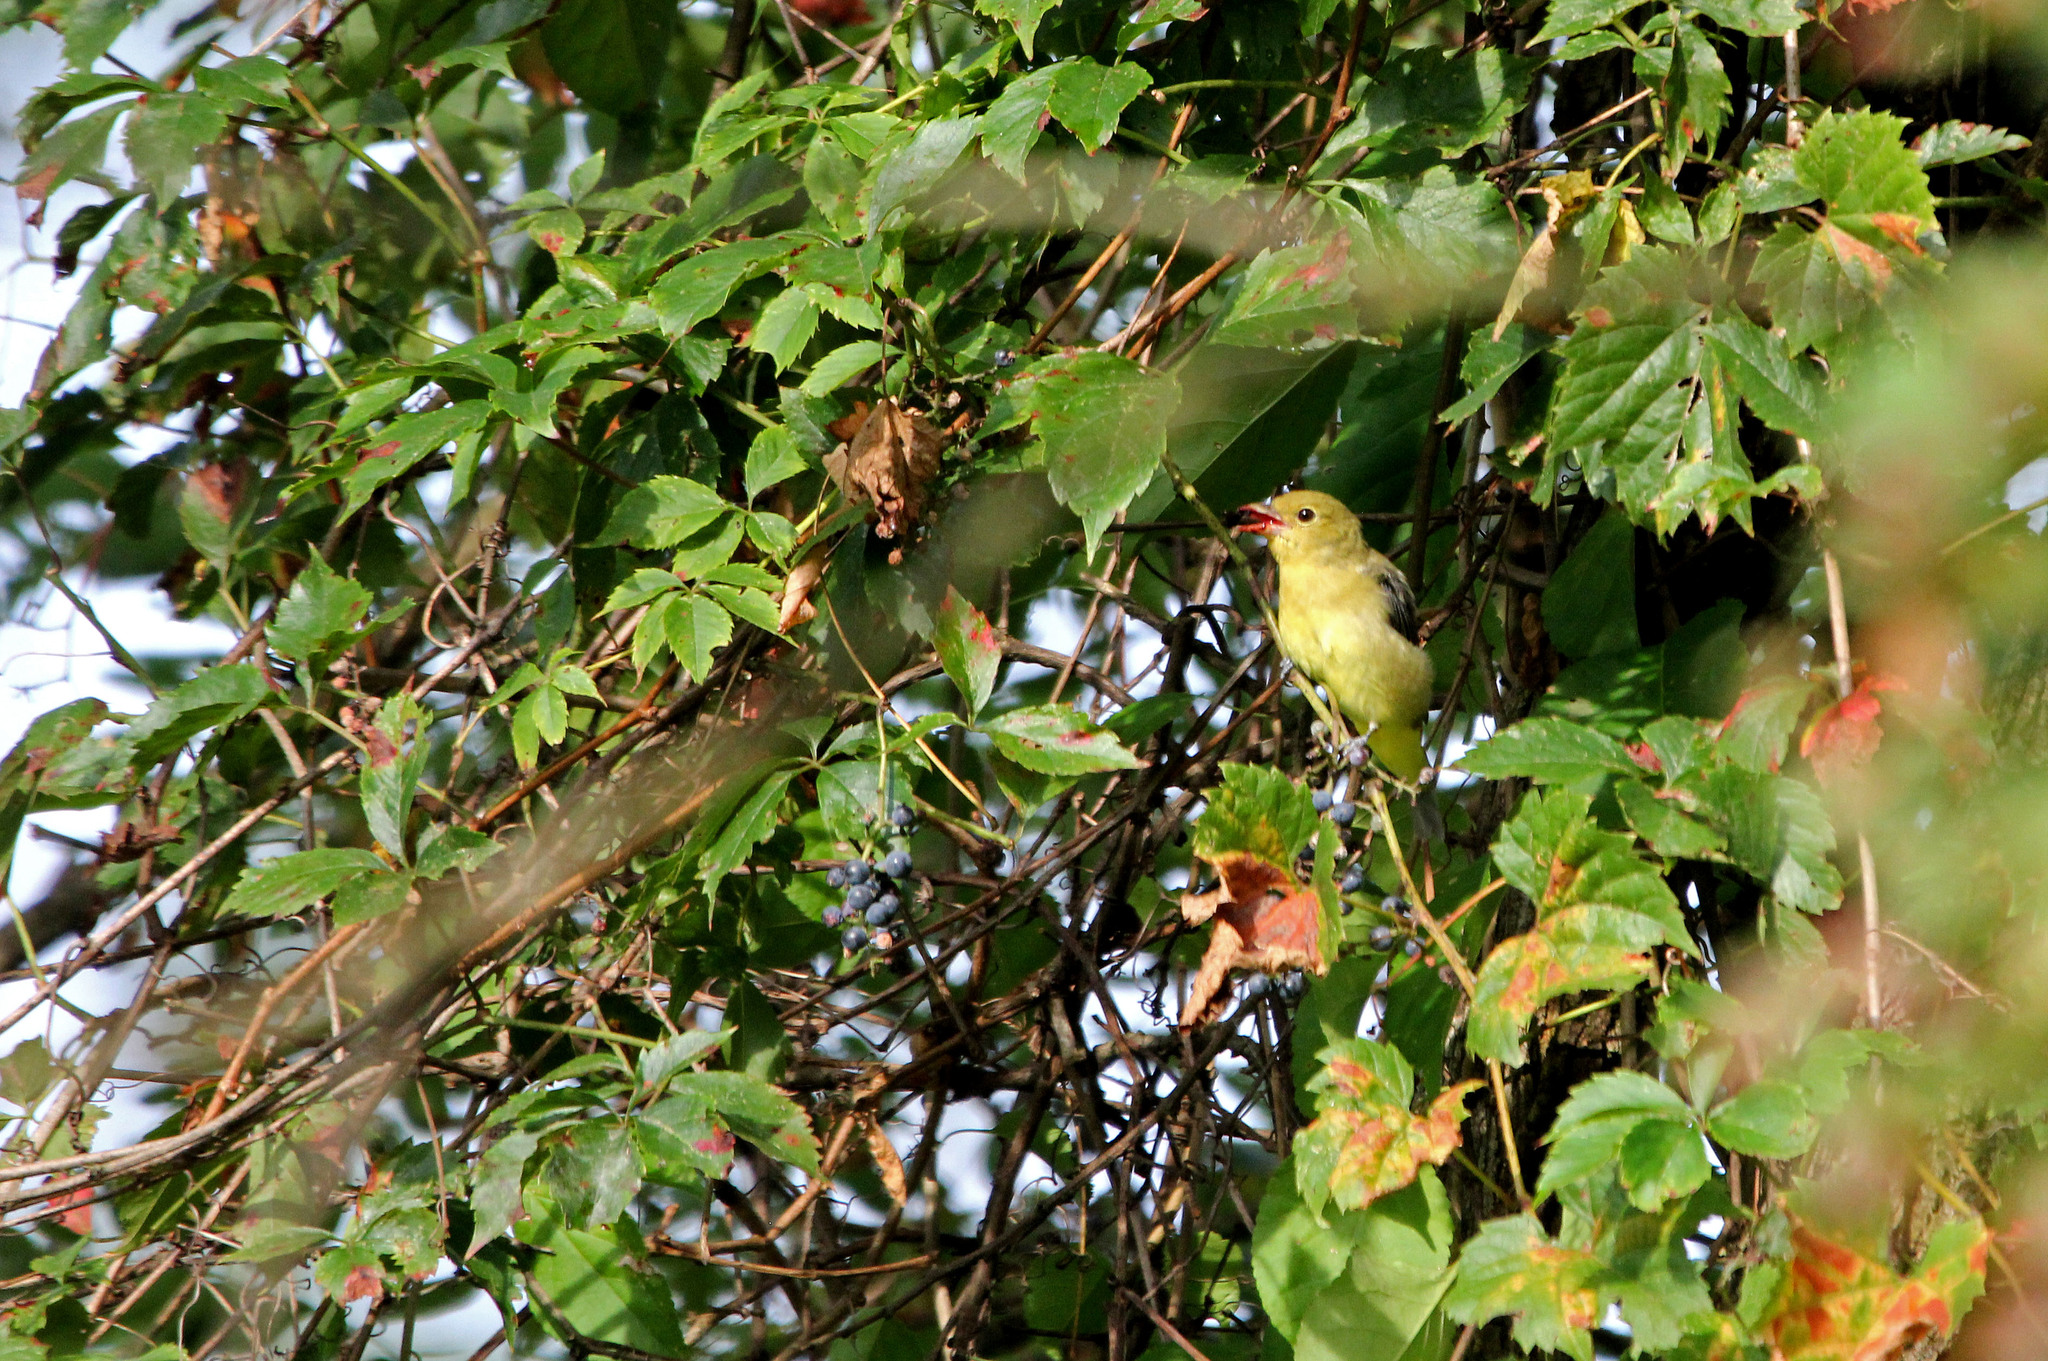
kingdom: Animalia
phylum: Chordata
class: Aves
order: Passeriformes
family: Cardinalidae
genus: Piranga
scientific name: Piranga olivacea
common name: Scarlet tanager
